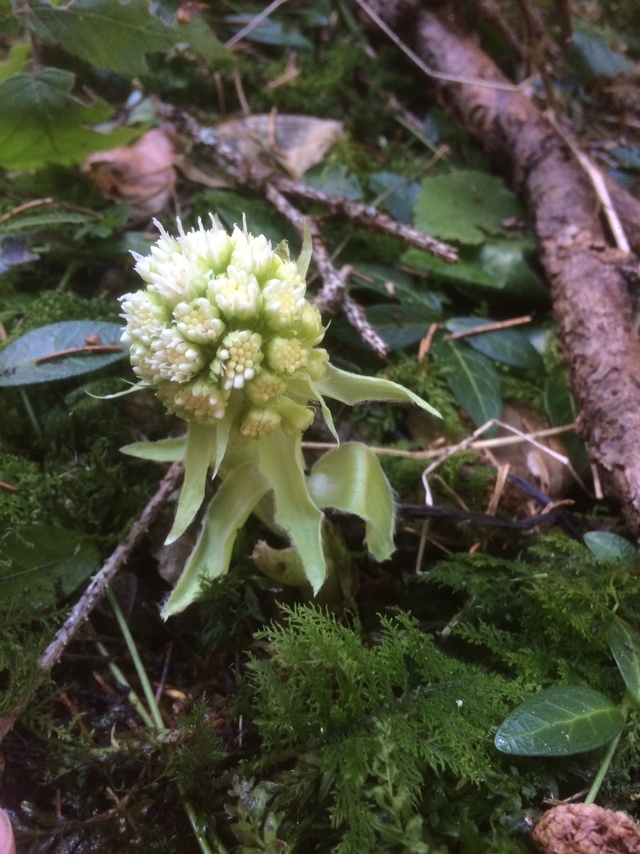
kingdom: Plantae
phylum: Tracheophyta
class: Magnoliopsida
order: Asterales
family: Asteraceae
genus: Petasites
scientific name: Petasites albus
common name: White butterbur
